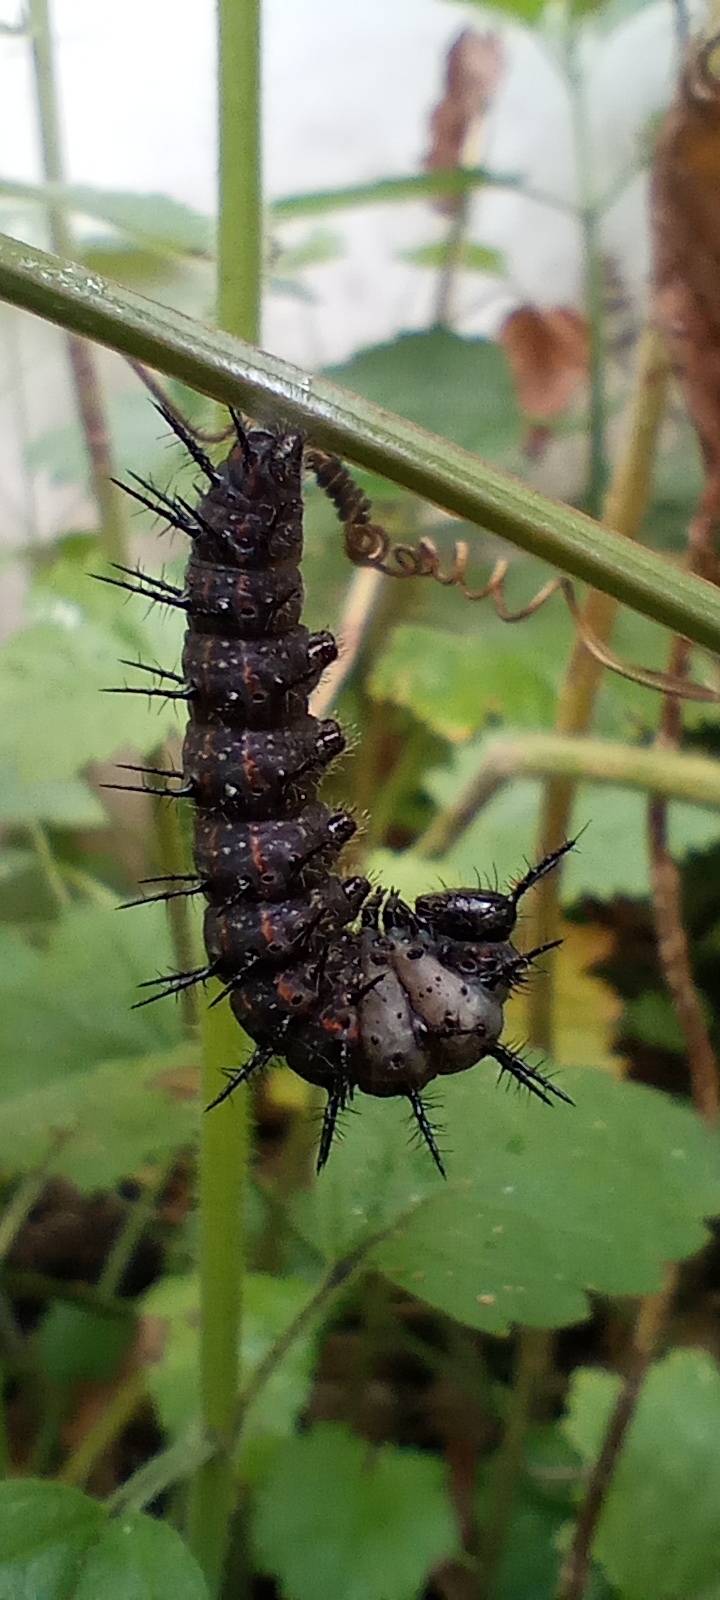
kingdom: Animalia
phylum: Arthropoda
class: Insecta
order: Lepidoptera
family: Nymphalidae
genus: Dione
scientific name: Dione vanillae
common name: Gulf fritillary
